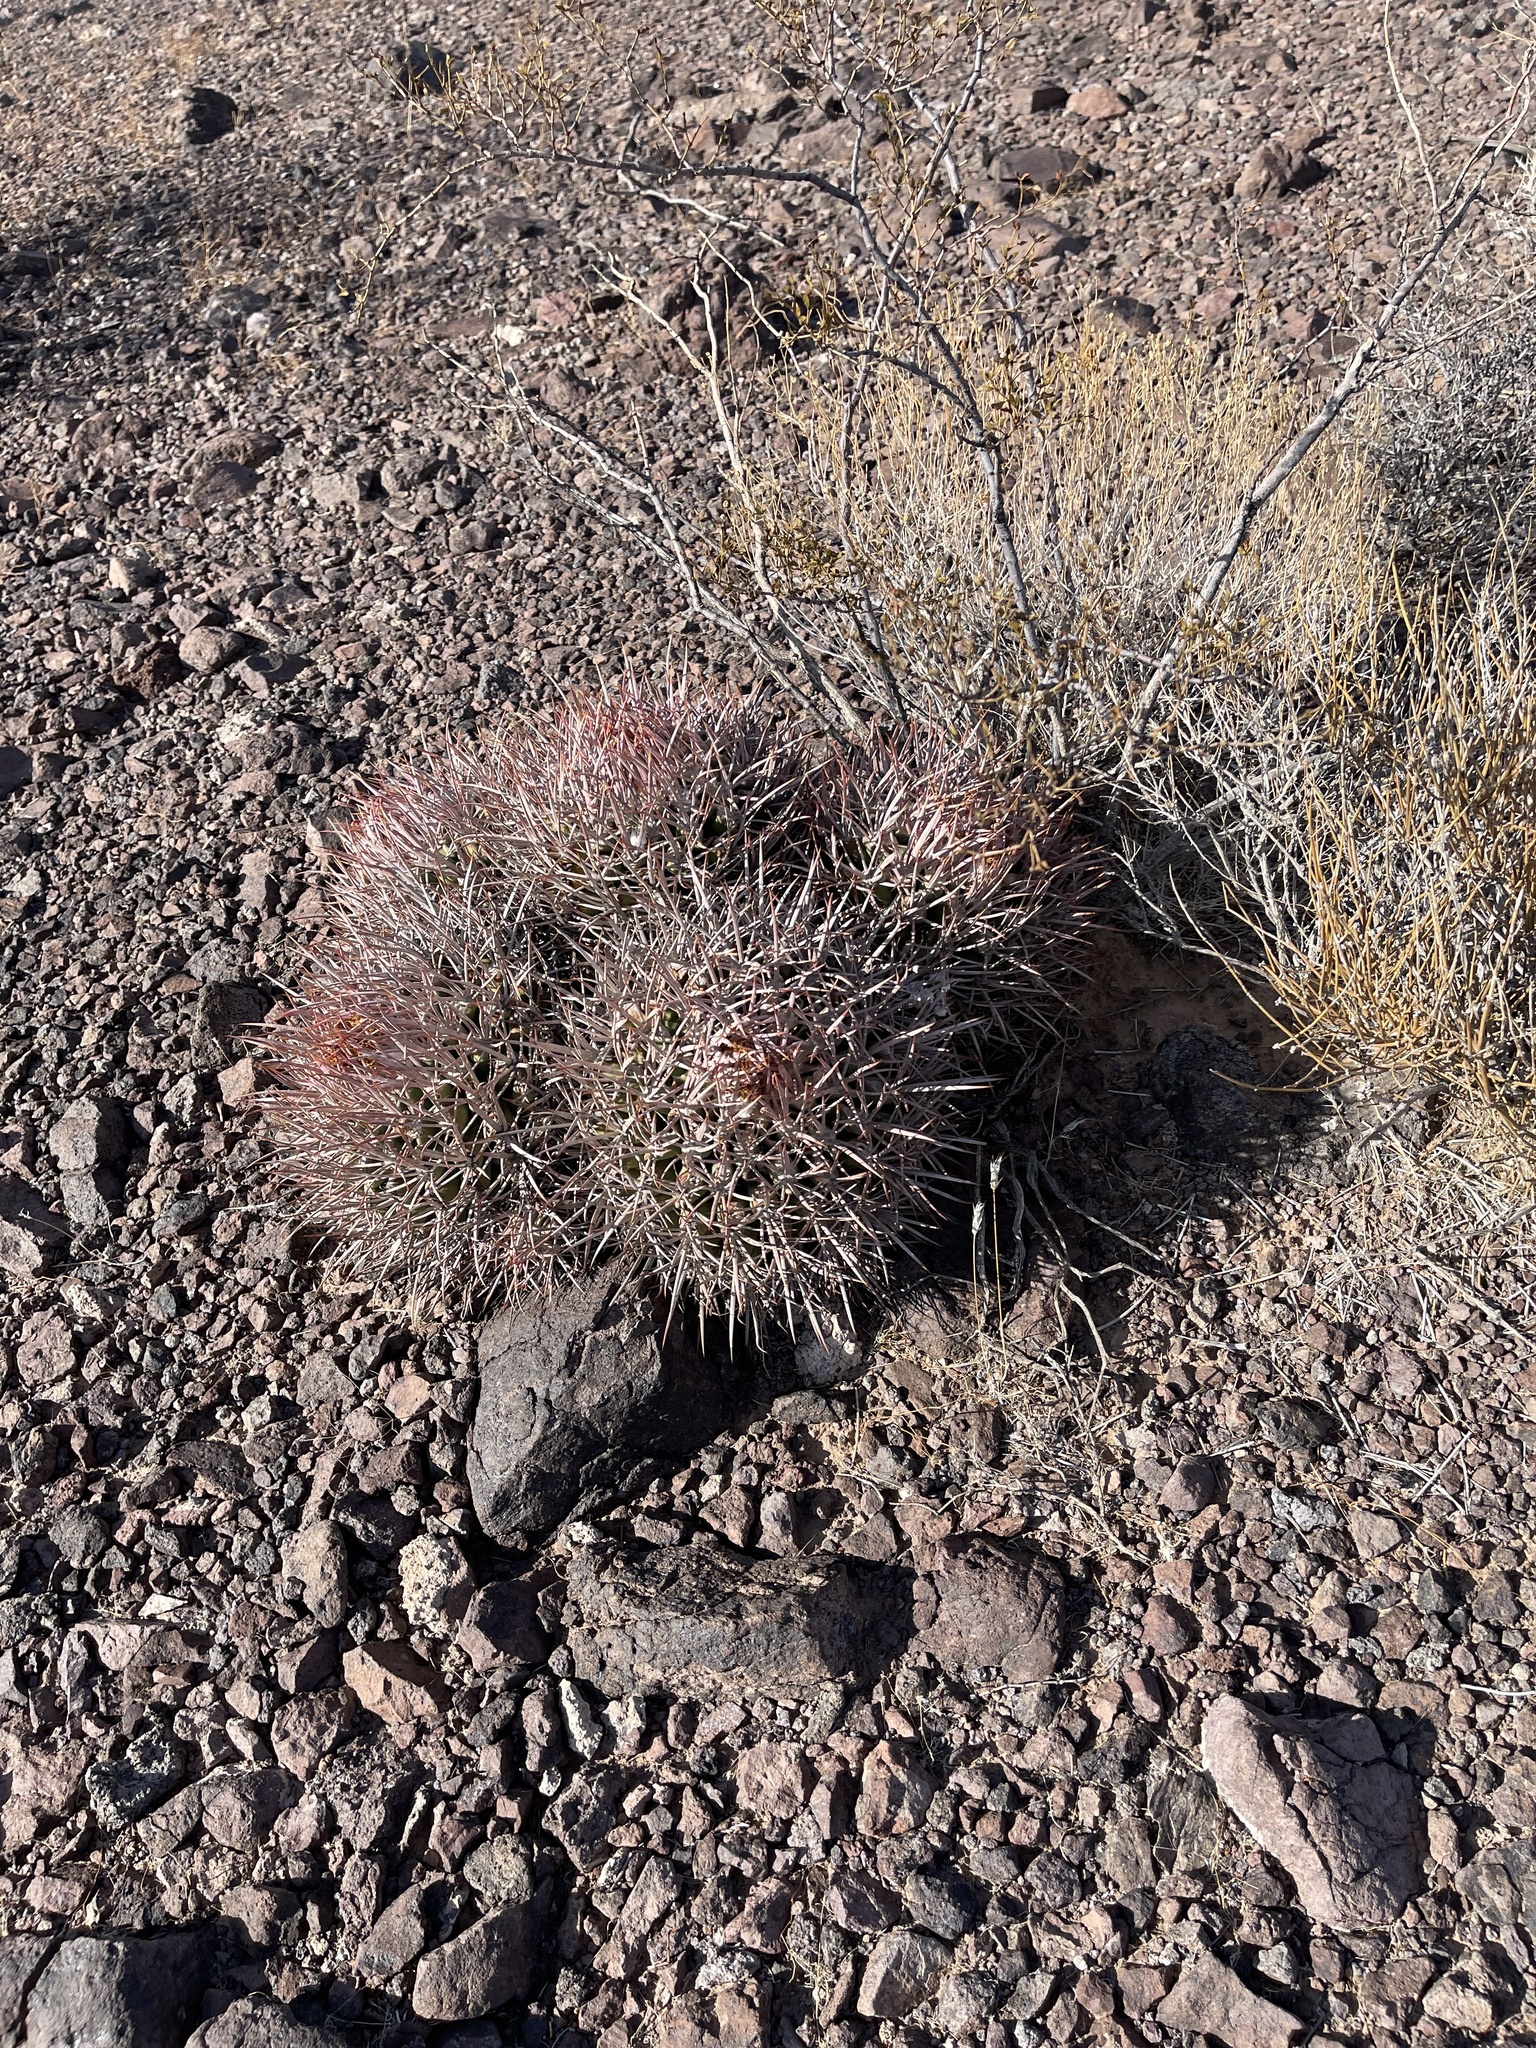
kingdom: Plantae
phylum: Tracheophyta
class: Magnoliopsida
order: Caryophyllales
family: Cactaceae
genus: Echinocactus
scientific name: Echinocactus polycephalus
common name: Cottontop cactus
